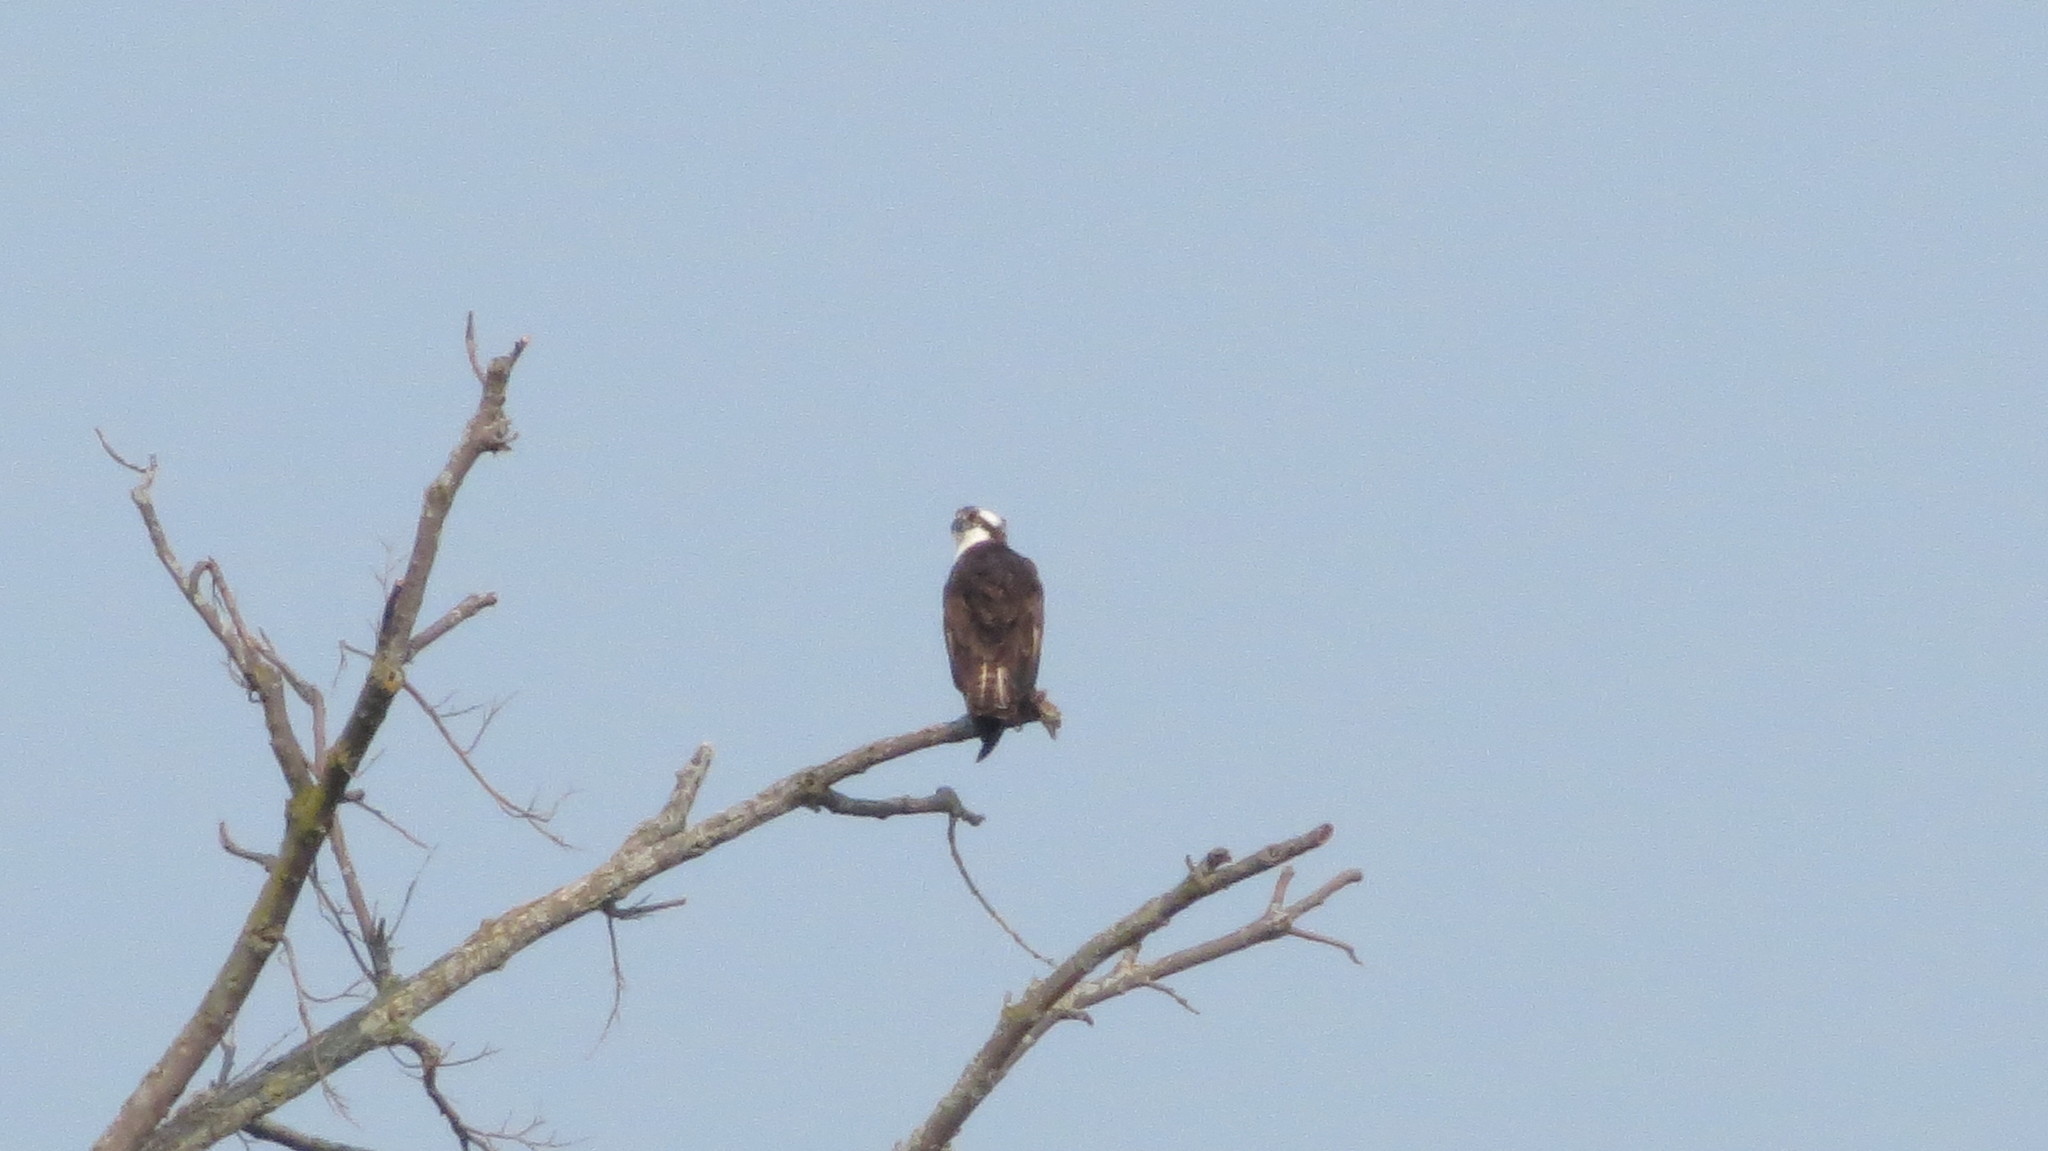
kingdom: Animalia
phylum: Chordata
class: Aves
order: Accipitriformes
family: Pandionidae
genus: Pandion
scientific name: Pandion haliaetus
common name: Osprey
